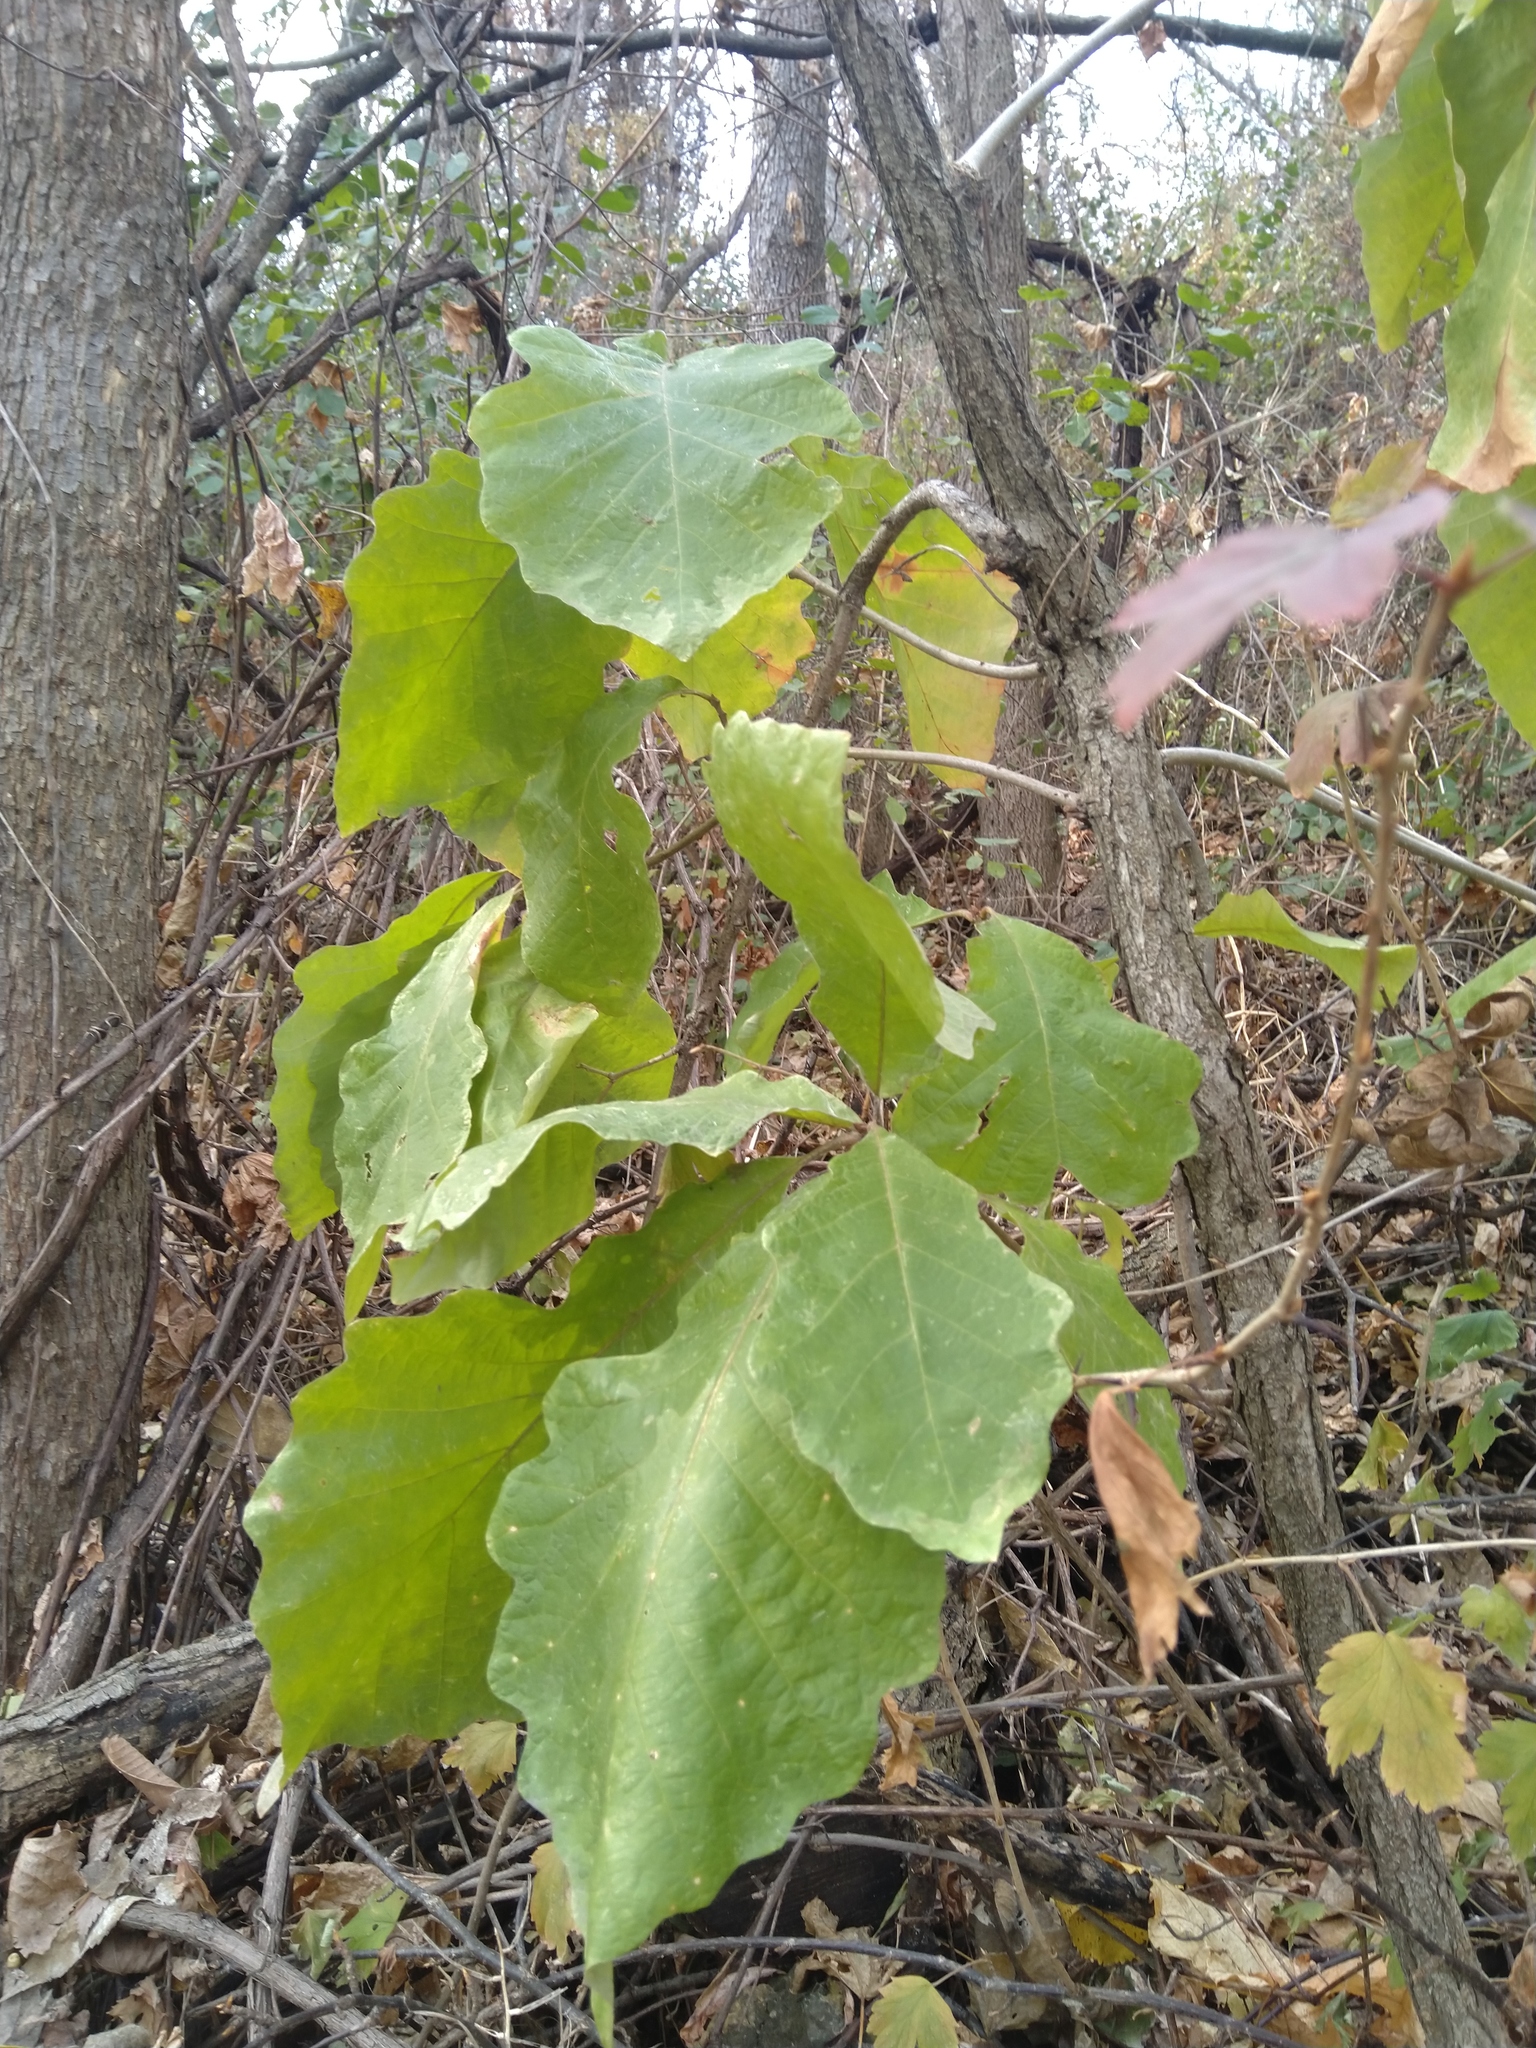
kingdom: Plantae
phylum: Tracheophyta
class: Magnoliopsida
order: Fagales
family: Fagaceae
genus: Quercus
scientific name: Quercus bicolor
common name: Swamp white oak
